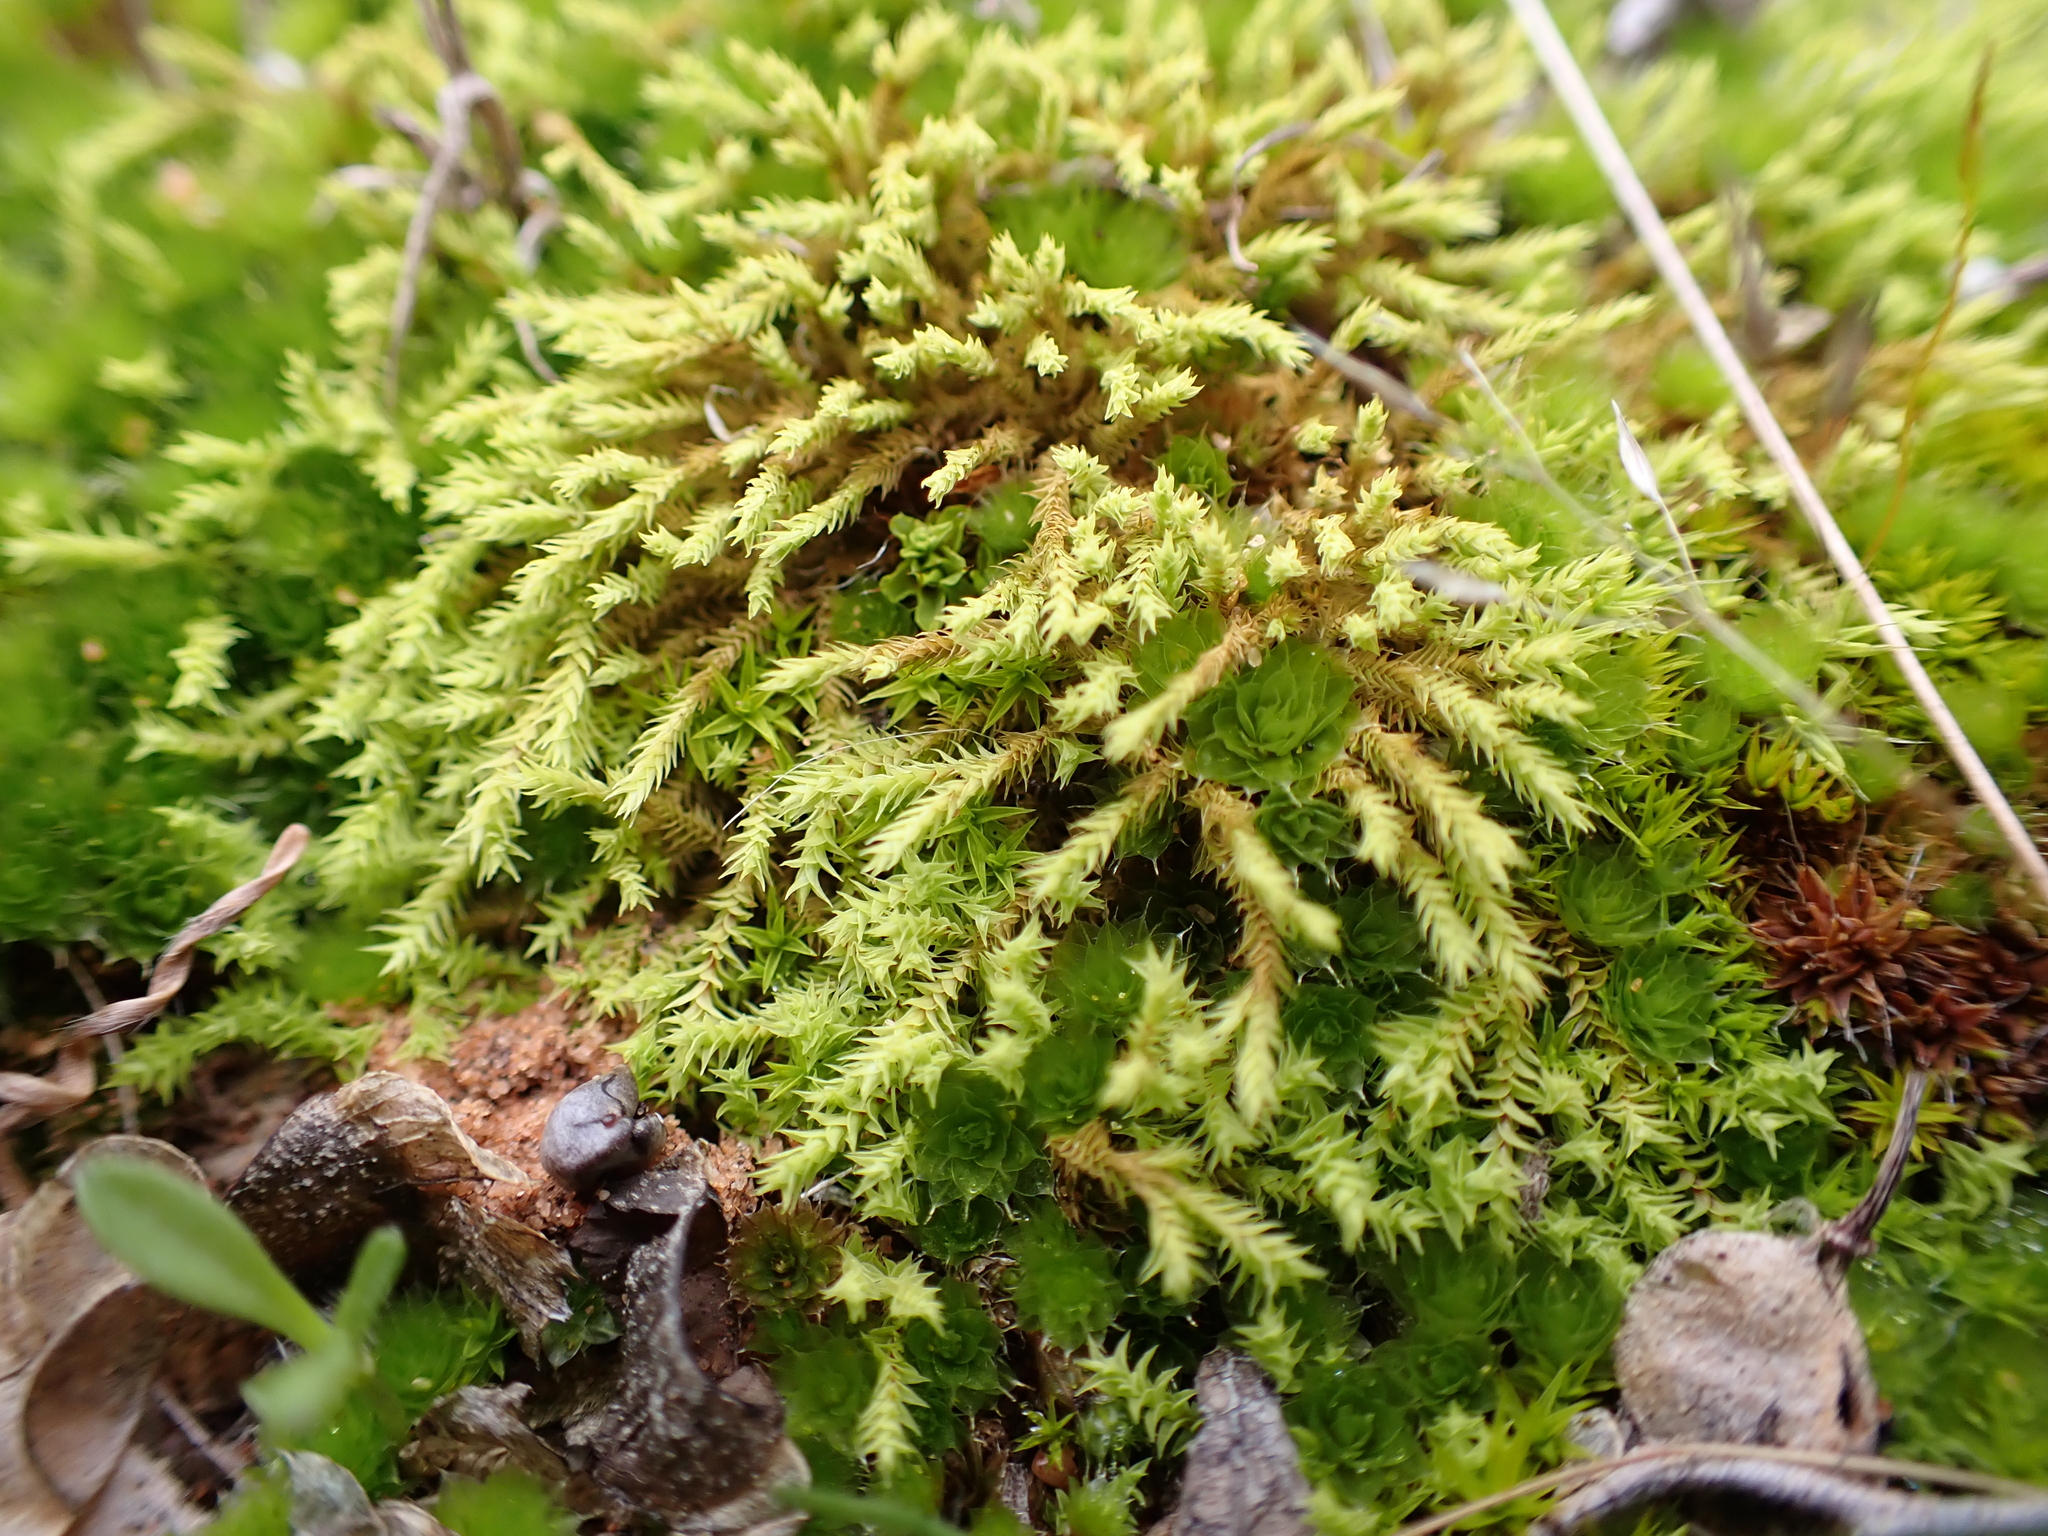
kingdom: Plantae
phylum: Bryophyta
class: Bryopsida
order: Pottiales
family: Pottiaceae
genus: Triquetrella
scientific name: Triquetrella papillata
